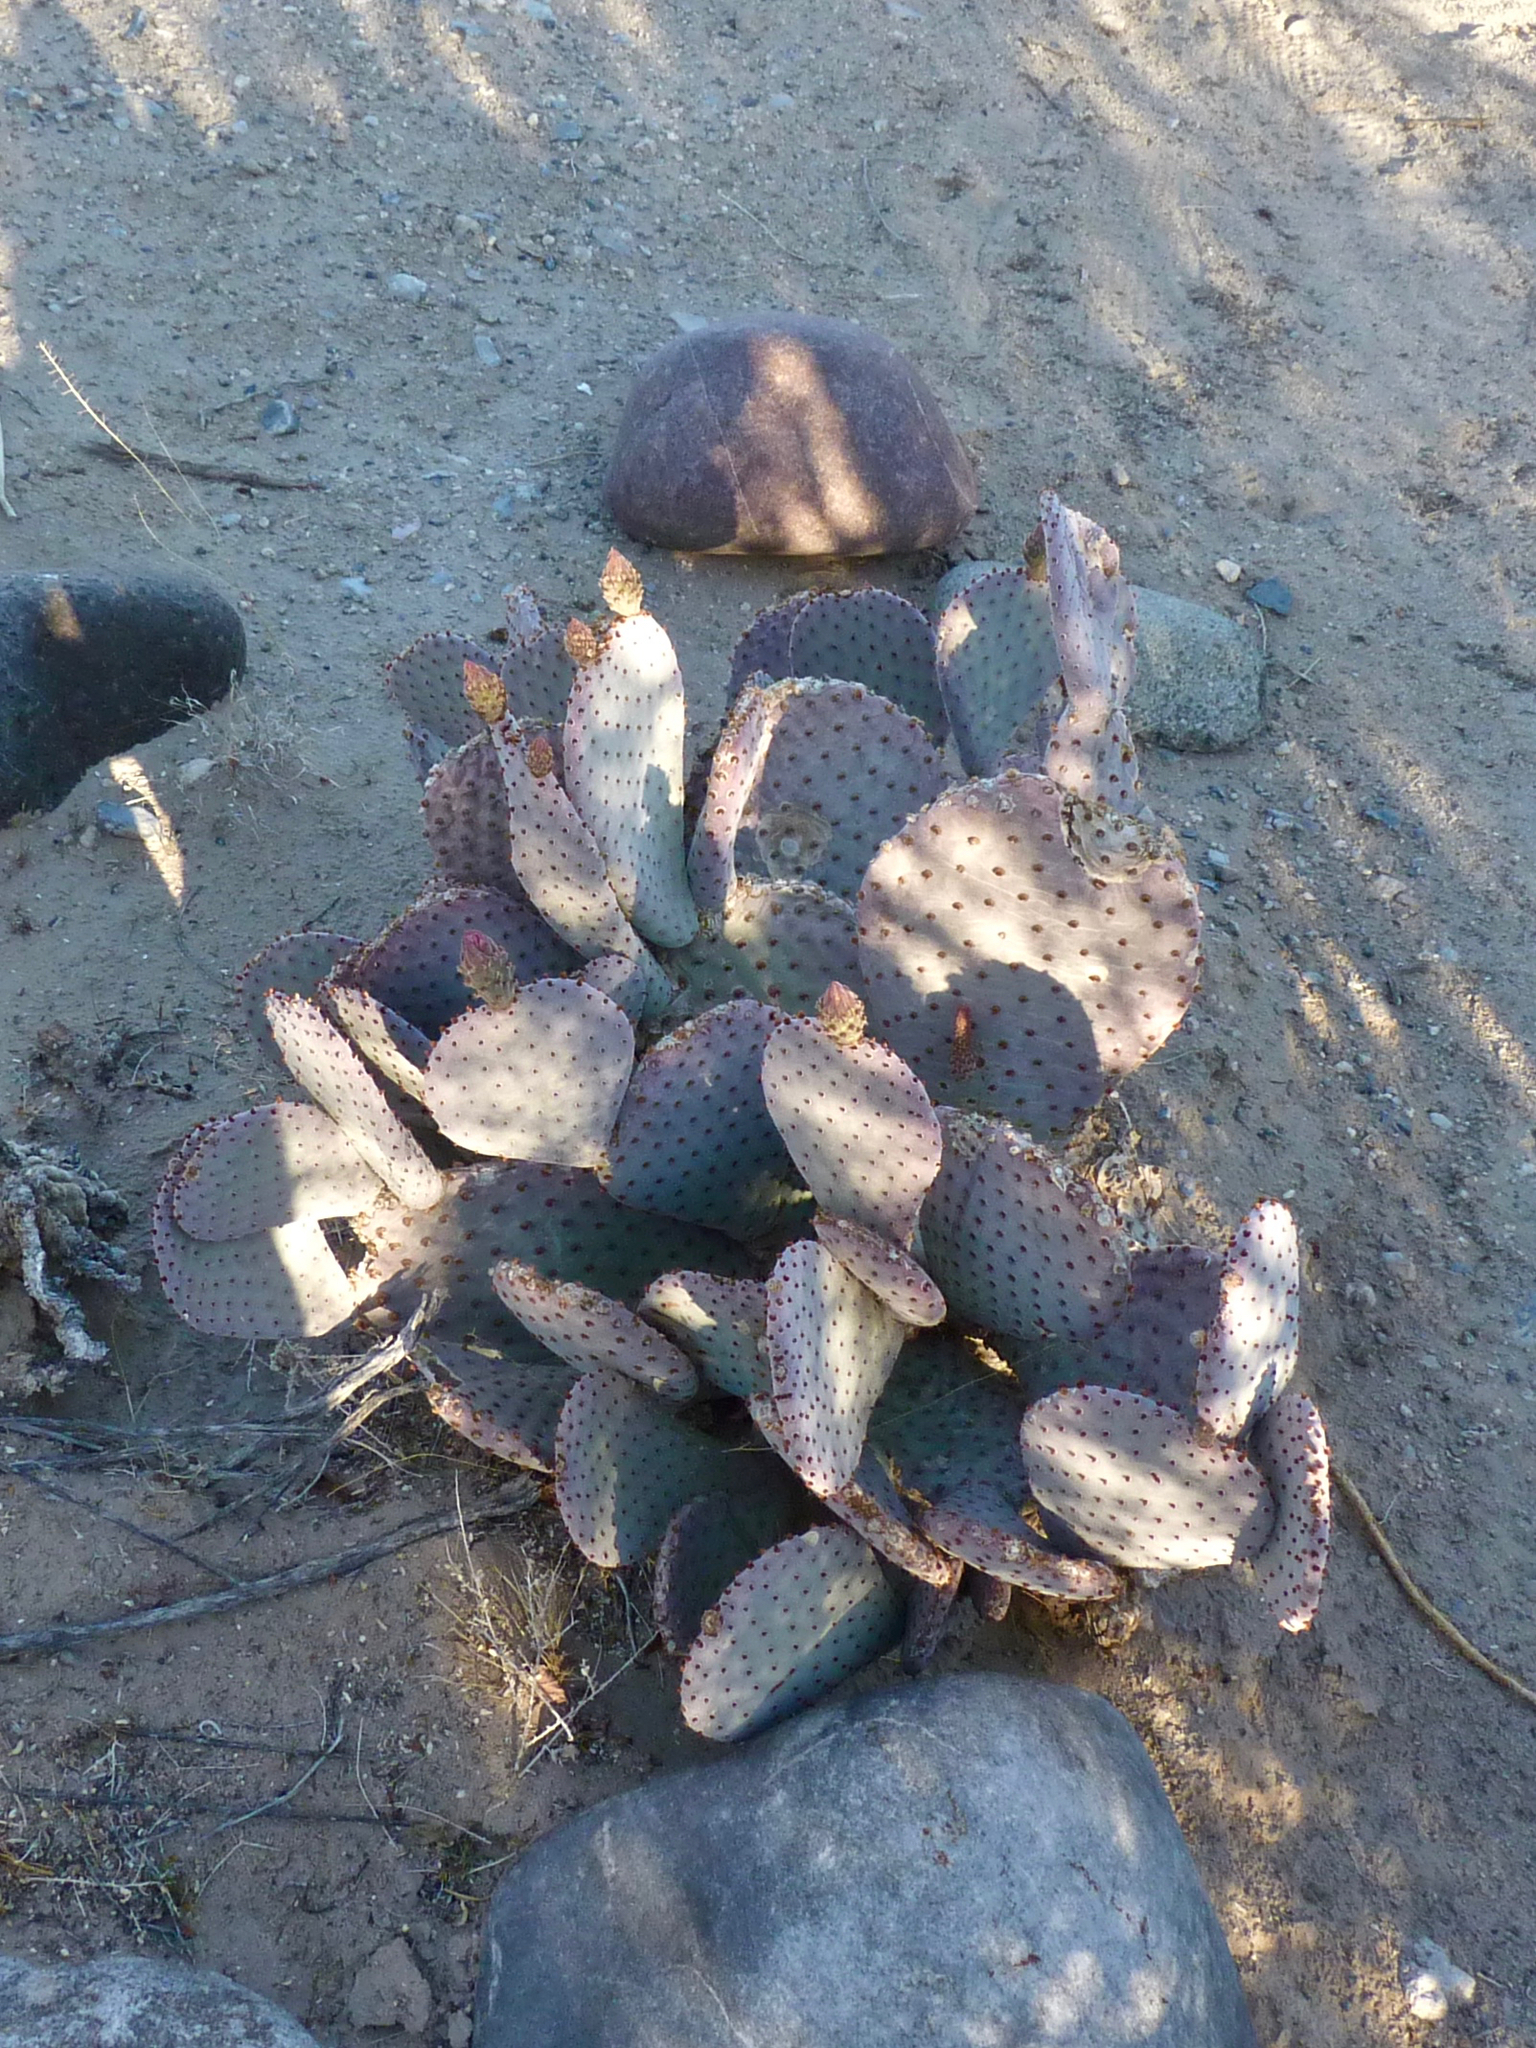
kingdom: Plantae
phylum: Tracheophyta
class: Magnoliopsida
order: Caryophyllales
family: Cactaceae
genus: Opuntia
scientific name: Opuntia basilaris
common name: Beavertail prickly-pear
